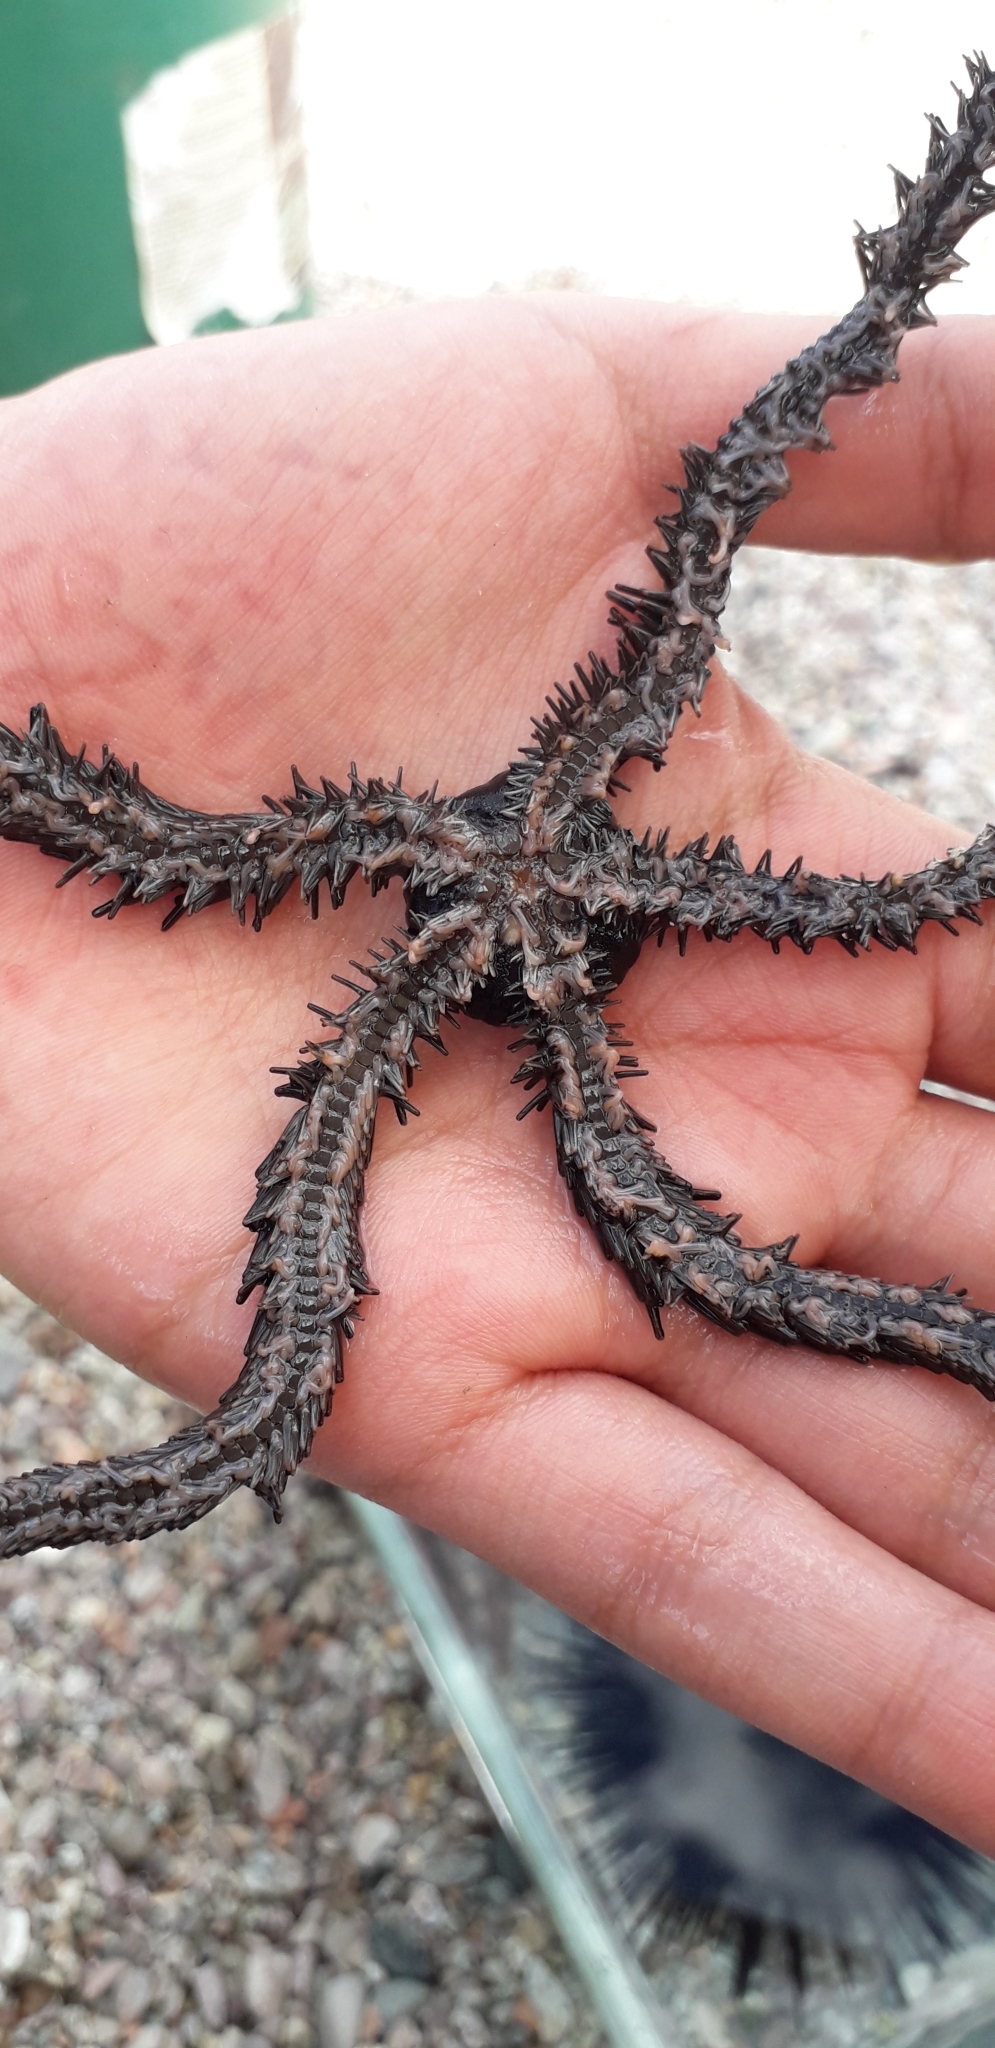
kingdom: Animalia
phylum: Echinodermata
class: Ophiuroidea
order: Ophiacanthida
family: Ophiocomidae
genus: Ophiocoma
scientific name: Ophiocoma aethiops
